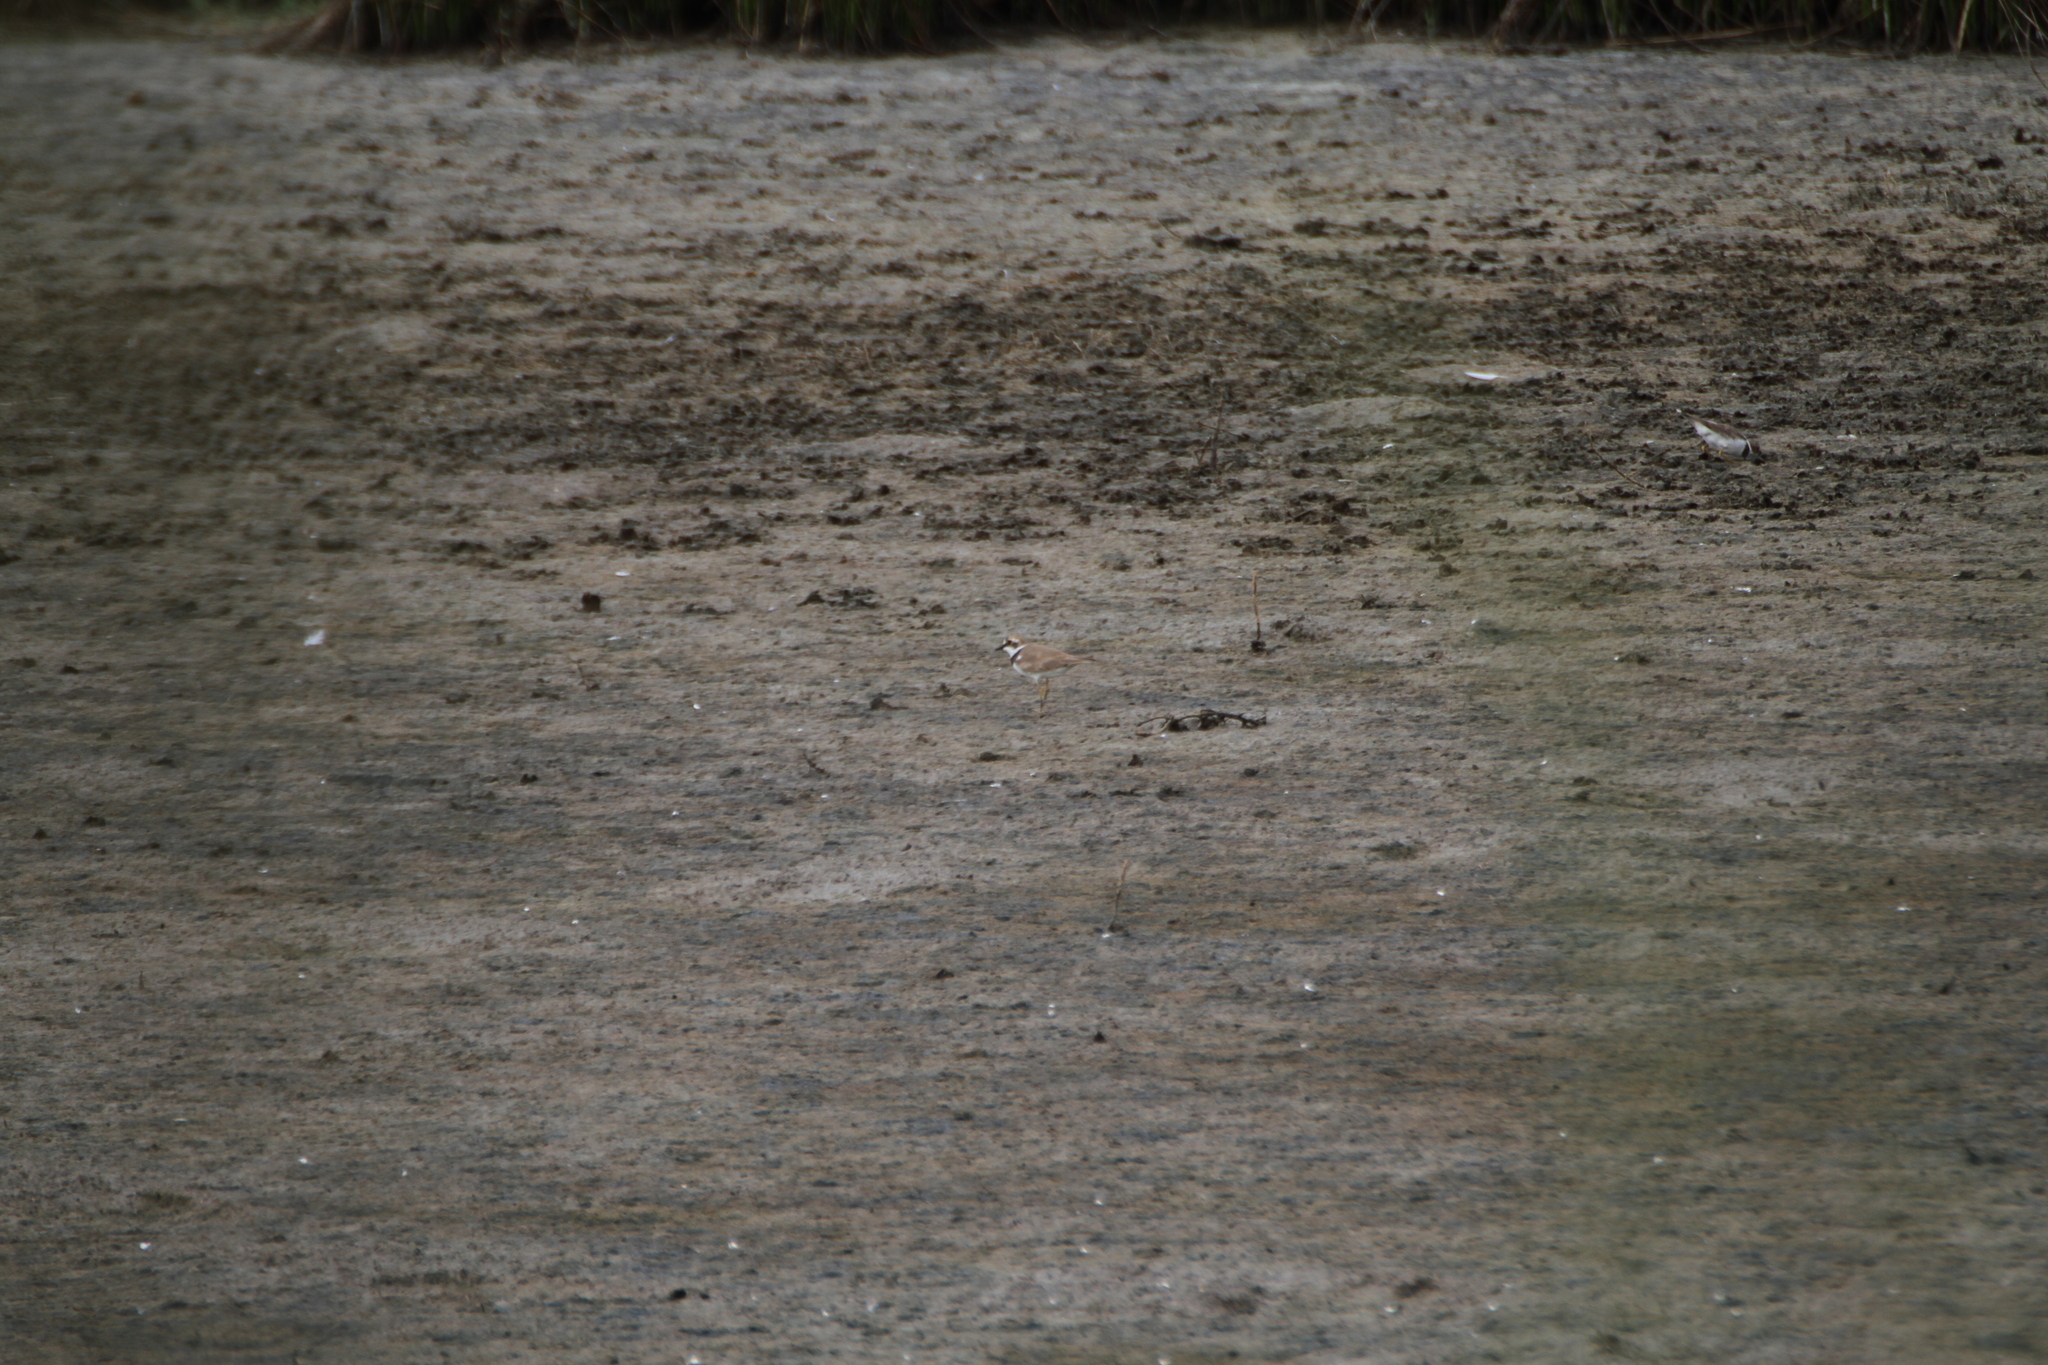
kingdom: Animalia
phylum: Chordata
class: Aves
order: Charadriiformes
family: Charadriidae
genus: Charadrius
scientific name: Charadrius dubius
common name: Little ringed plover
